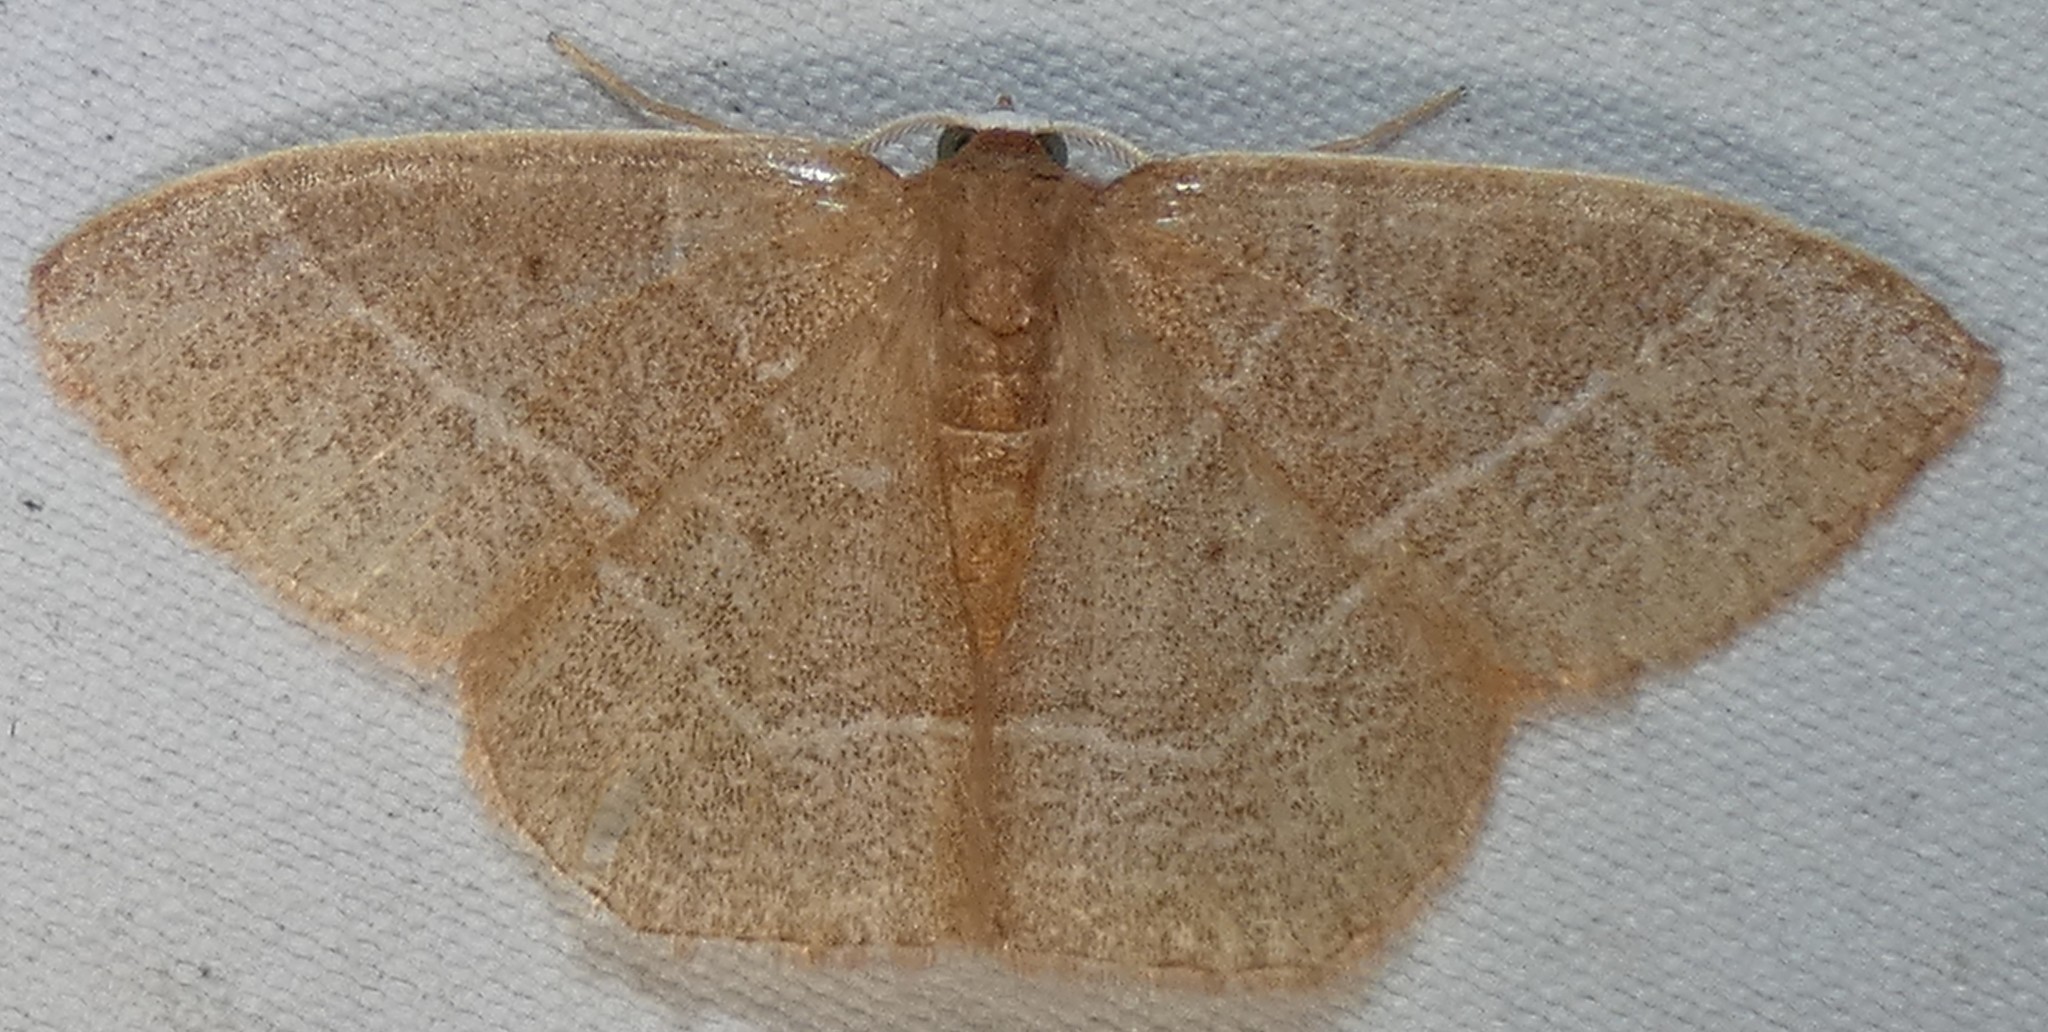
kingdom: Animalia
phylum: Arthropoda
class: Insecta
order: Lepidoptera
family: Geometridae
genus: Nemoria
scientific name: Nemoria bistriaria
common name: Red-fringed emerald
